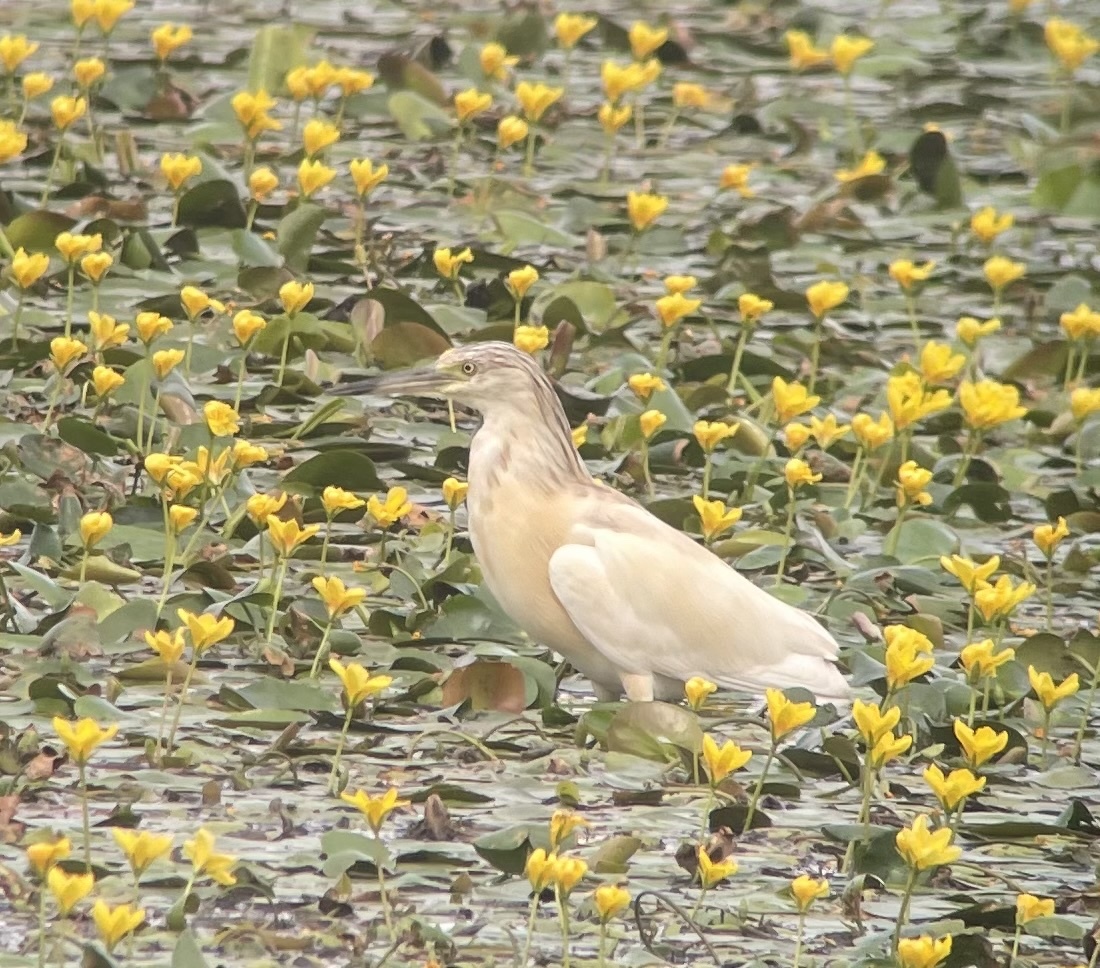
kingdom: Animalia
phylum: Chordata
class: Aves
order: Pelecaniformes
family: Ardeidae
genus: Ardeola
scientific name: Ardeola ralloides
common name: Squacco heron
